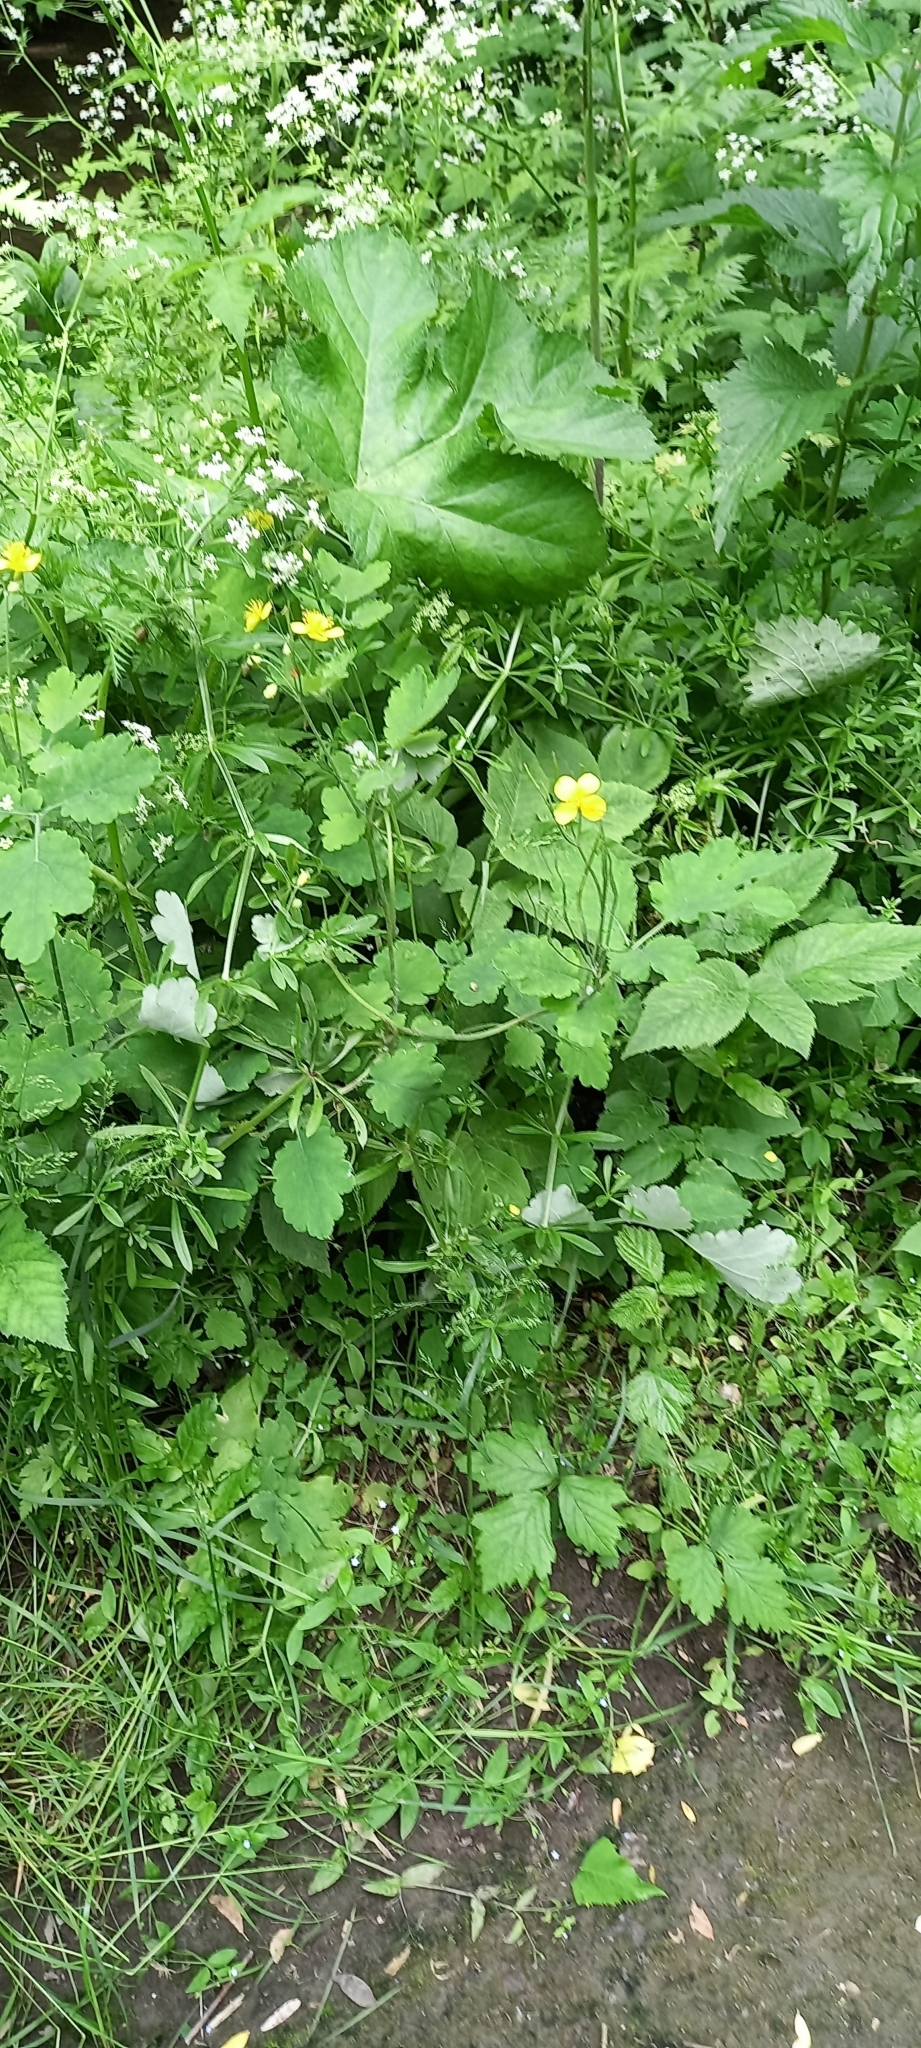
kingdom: Plantae
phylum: Tracheophyta
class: Magnoliopsida
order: Ranunculales
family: Papaveraceae
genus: Chelidonium
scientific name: Chelidonium majus
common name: Greater celandine
